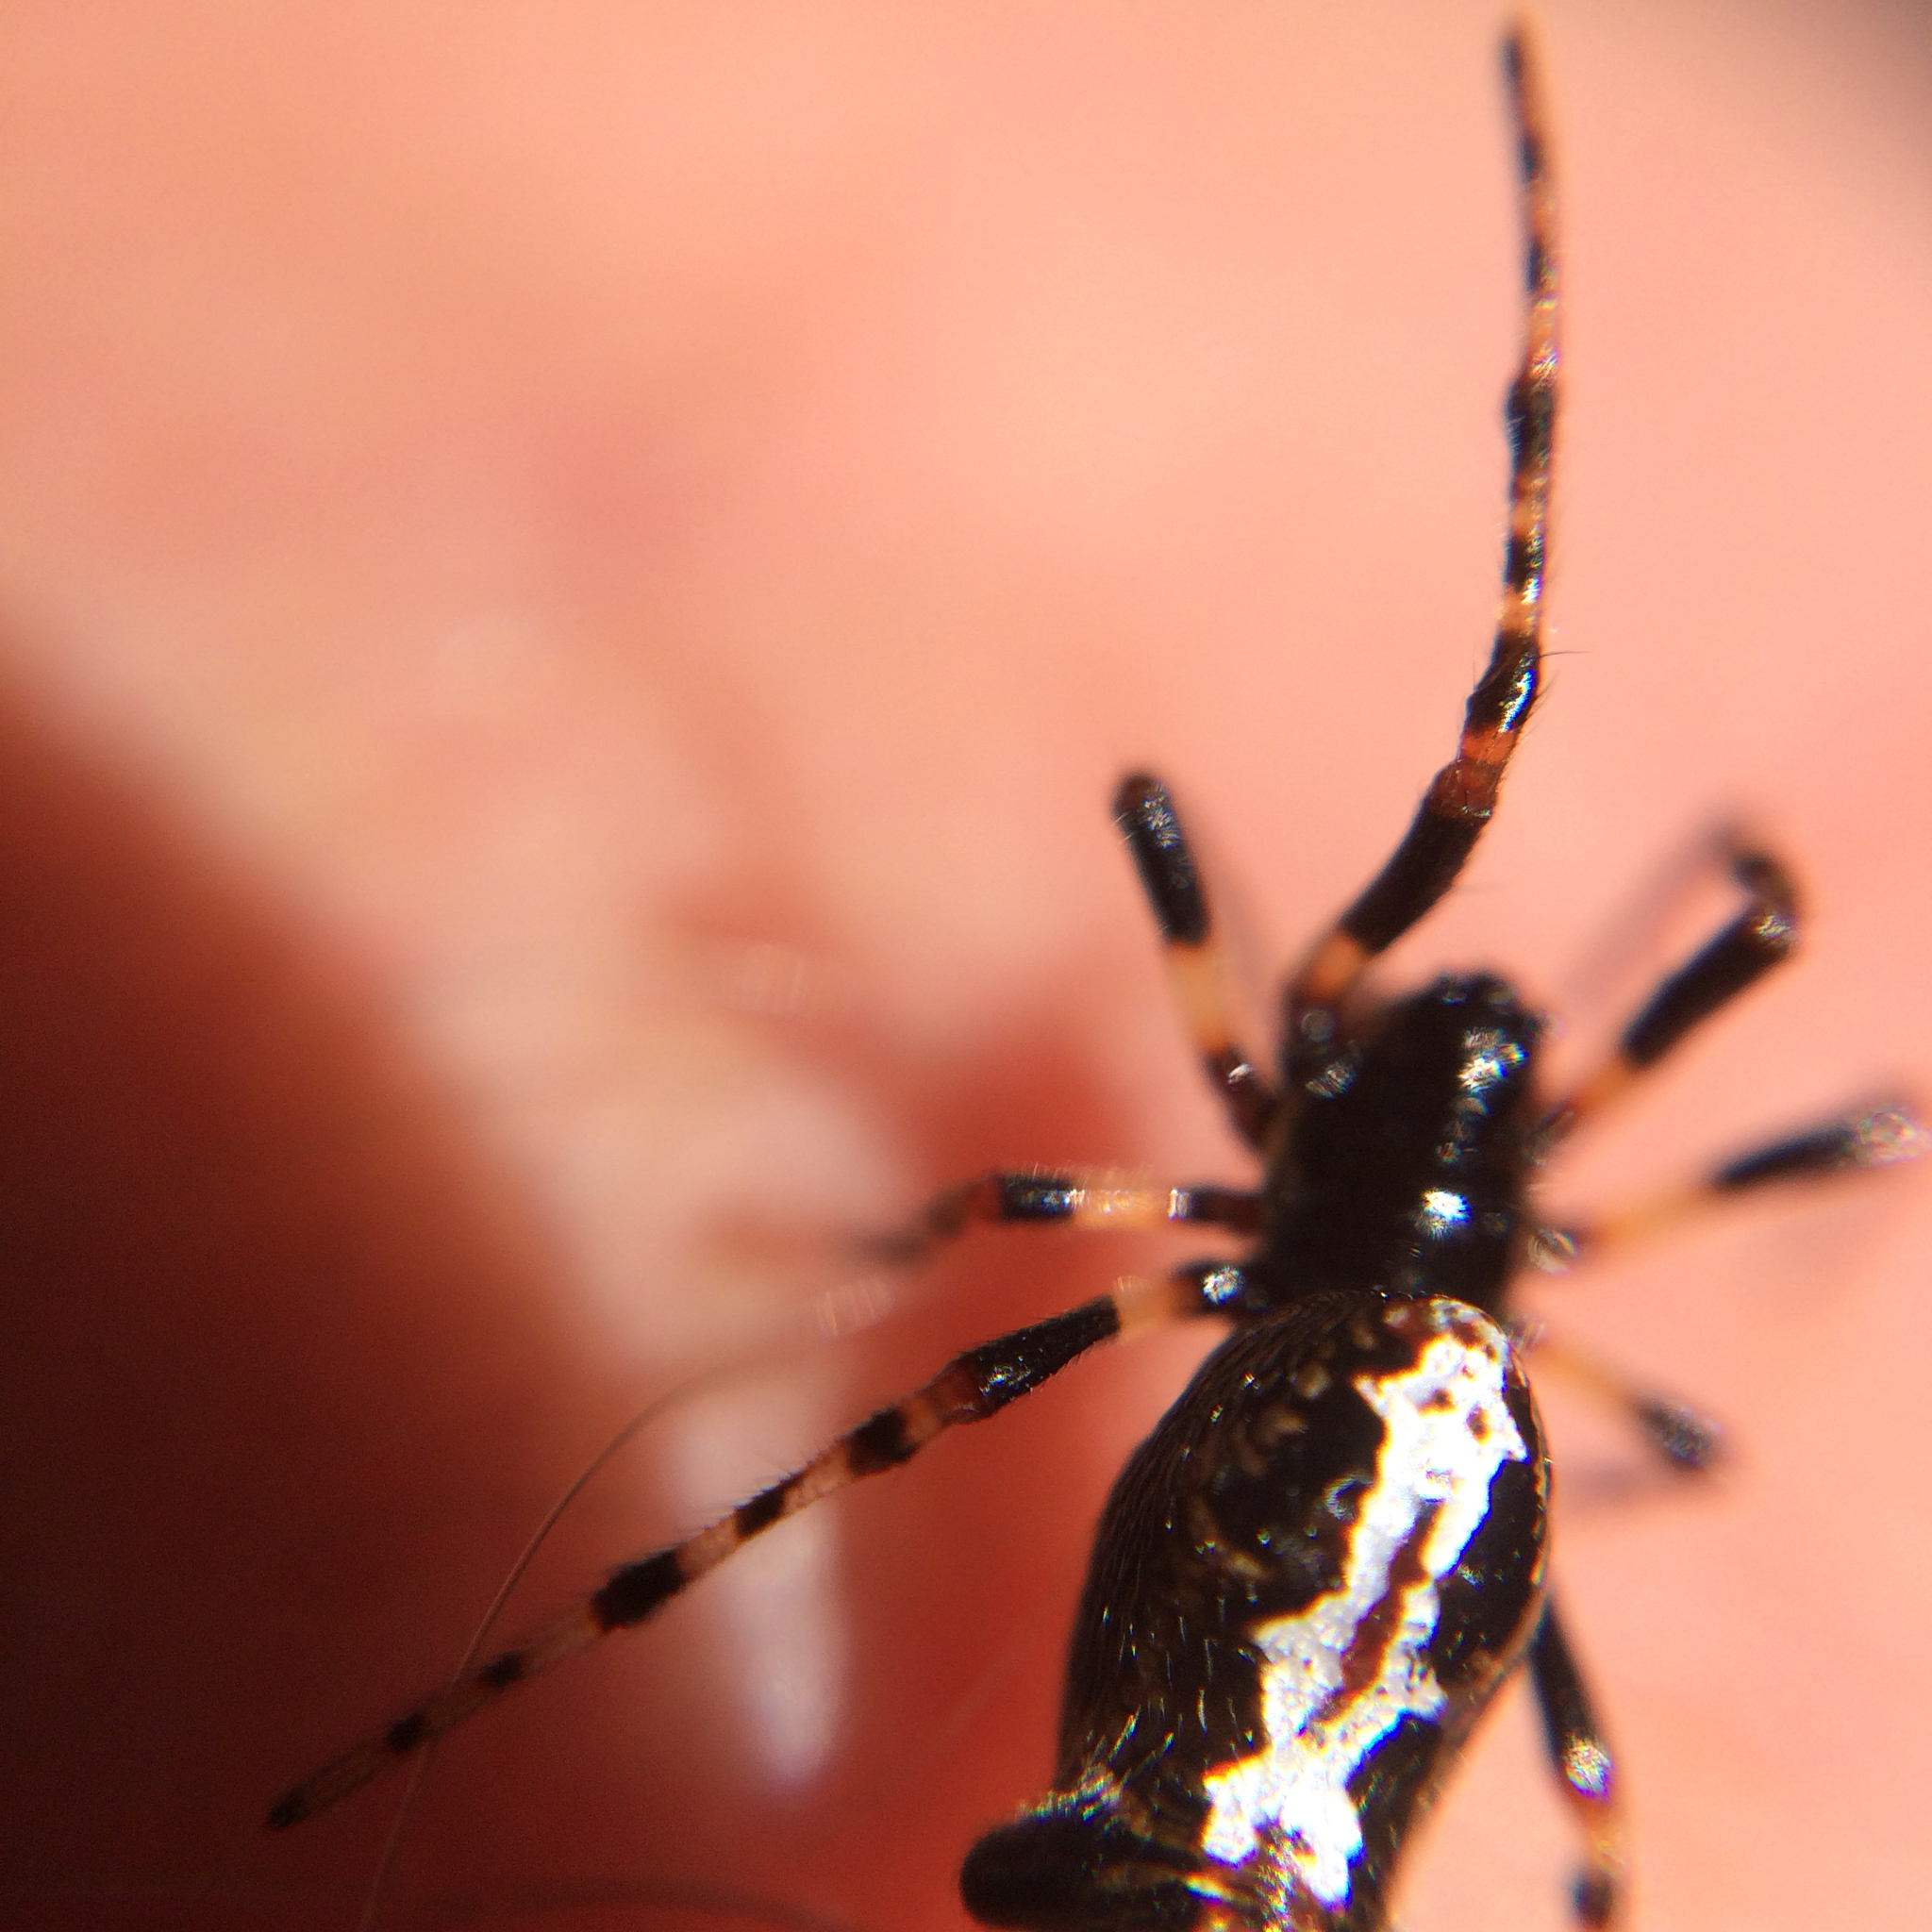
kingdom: Animalia
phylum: Arthropoda
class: Arachnida
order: Araneae
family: Araneidae
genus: Cyclosa
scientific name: Cyclosa trilobata
